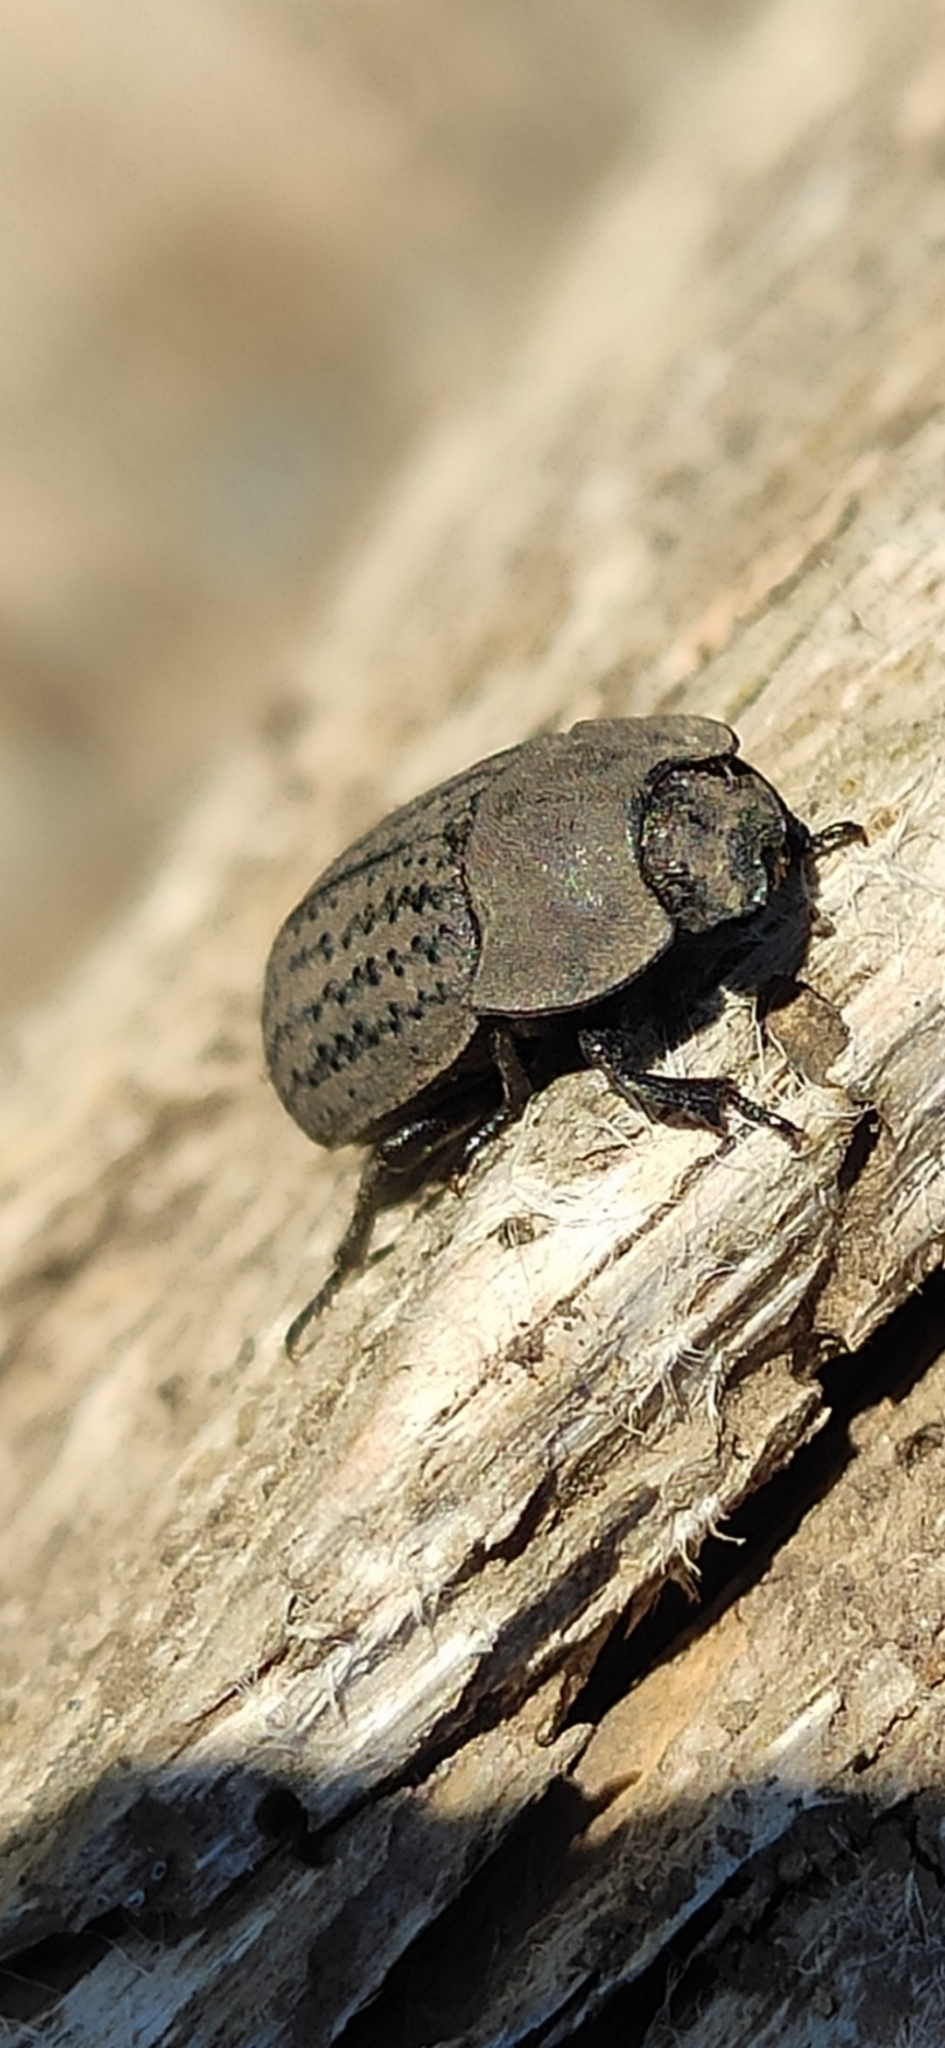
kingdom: Animalia
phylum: Arthropoda
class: Insecta
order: Coleoptera
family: Tenebrionidae
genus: Opatrum
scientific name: Opatrum sabulosum
